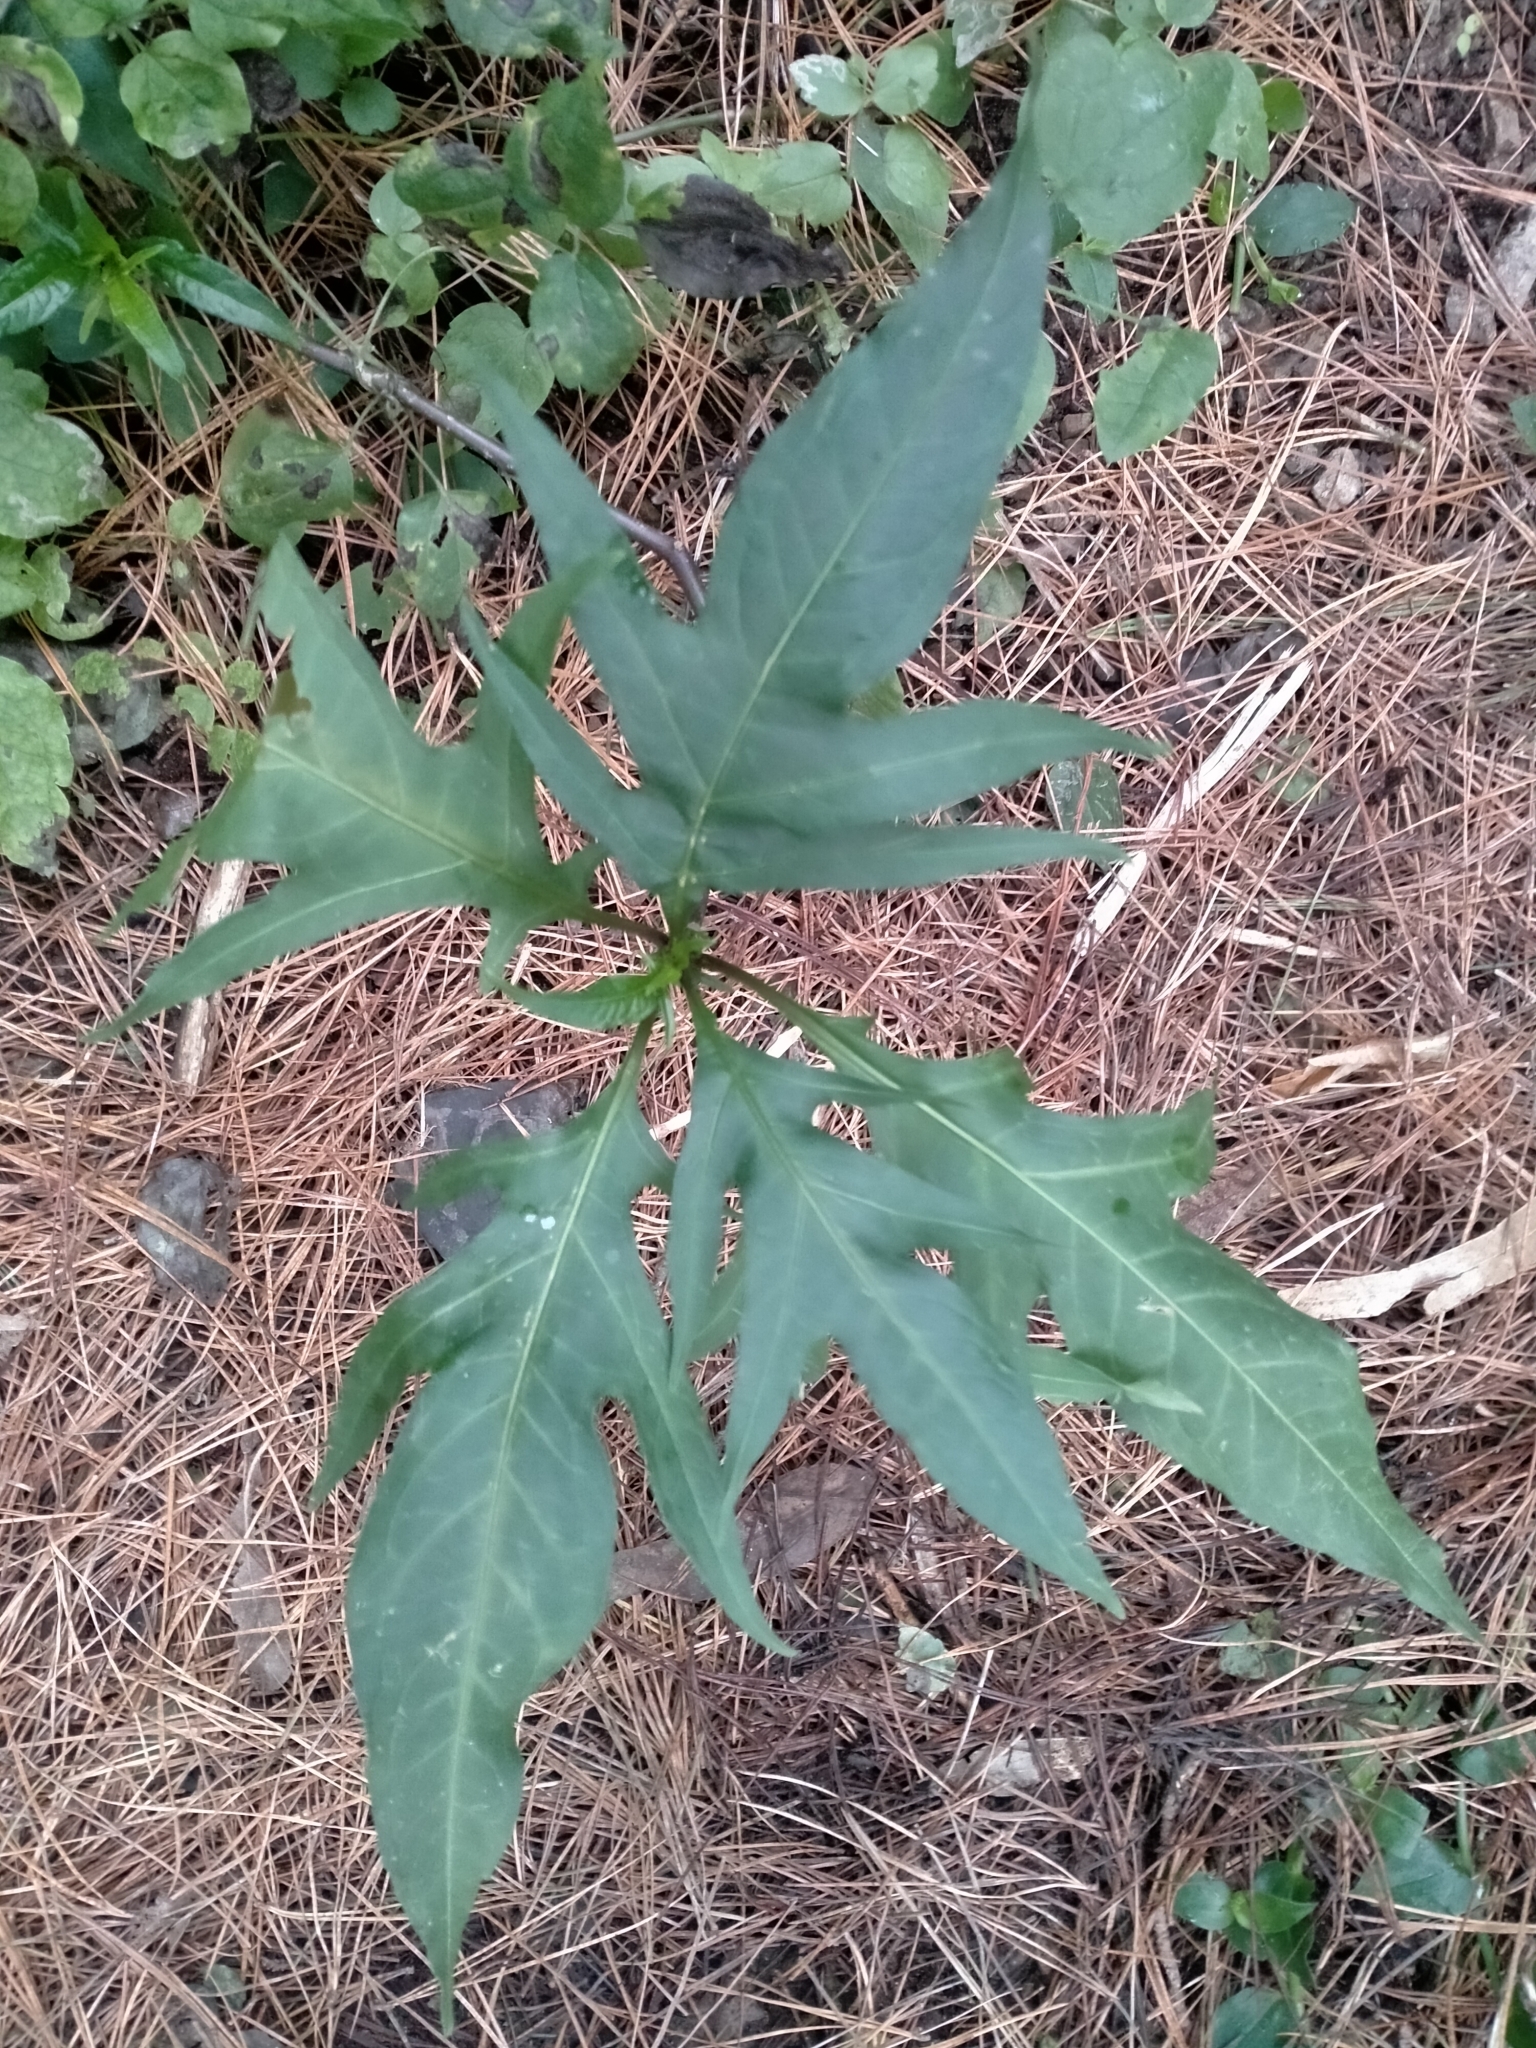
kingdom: Plantae
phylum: Tracheophyta
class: Magnoliopsida
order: Solanales
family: Solanaceae
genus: Solanum
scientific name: Solanum
